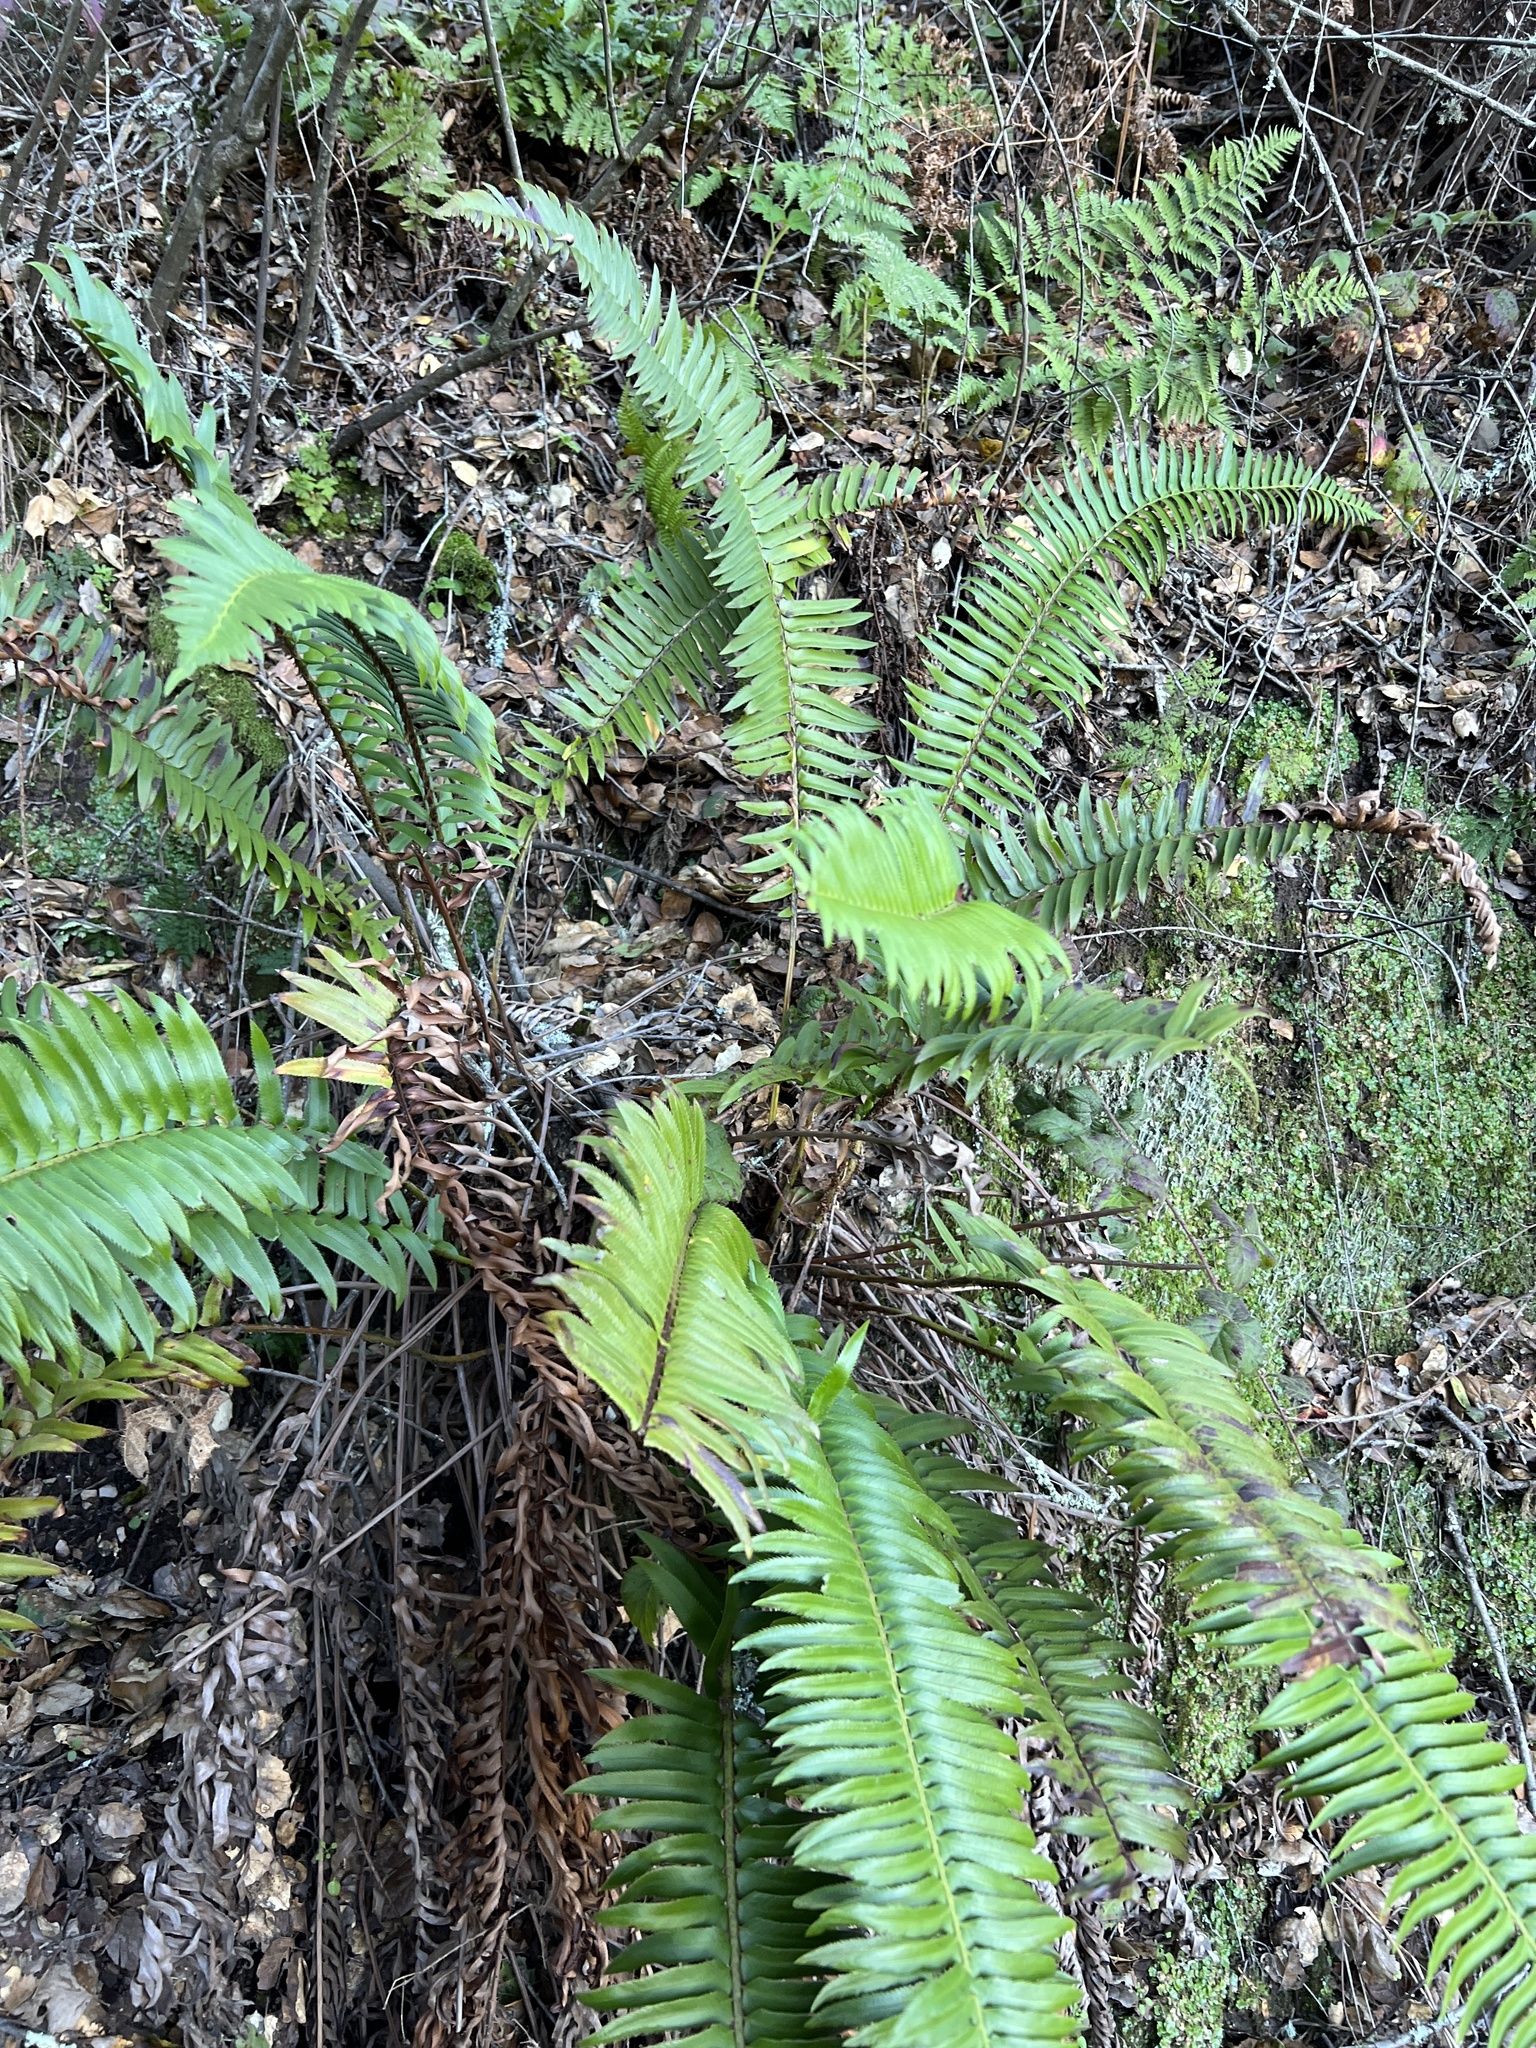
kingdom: Plantae
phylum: Tracheophyta
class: Polypodiopsida
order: Polypodiales
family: Dryopteridaceae
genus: Polystichum
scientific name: Polystichum munitum
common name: Western sword-fern
